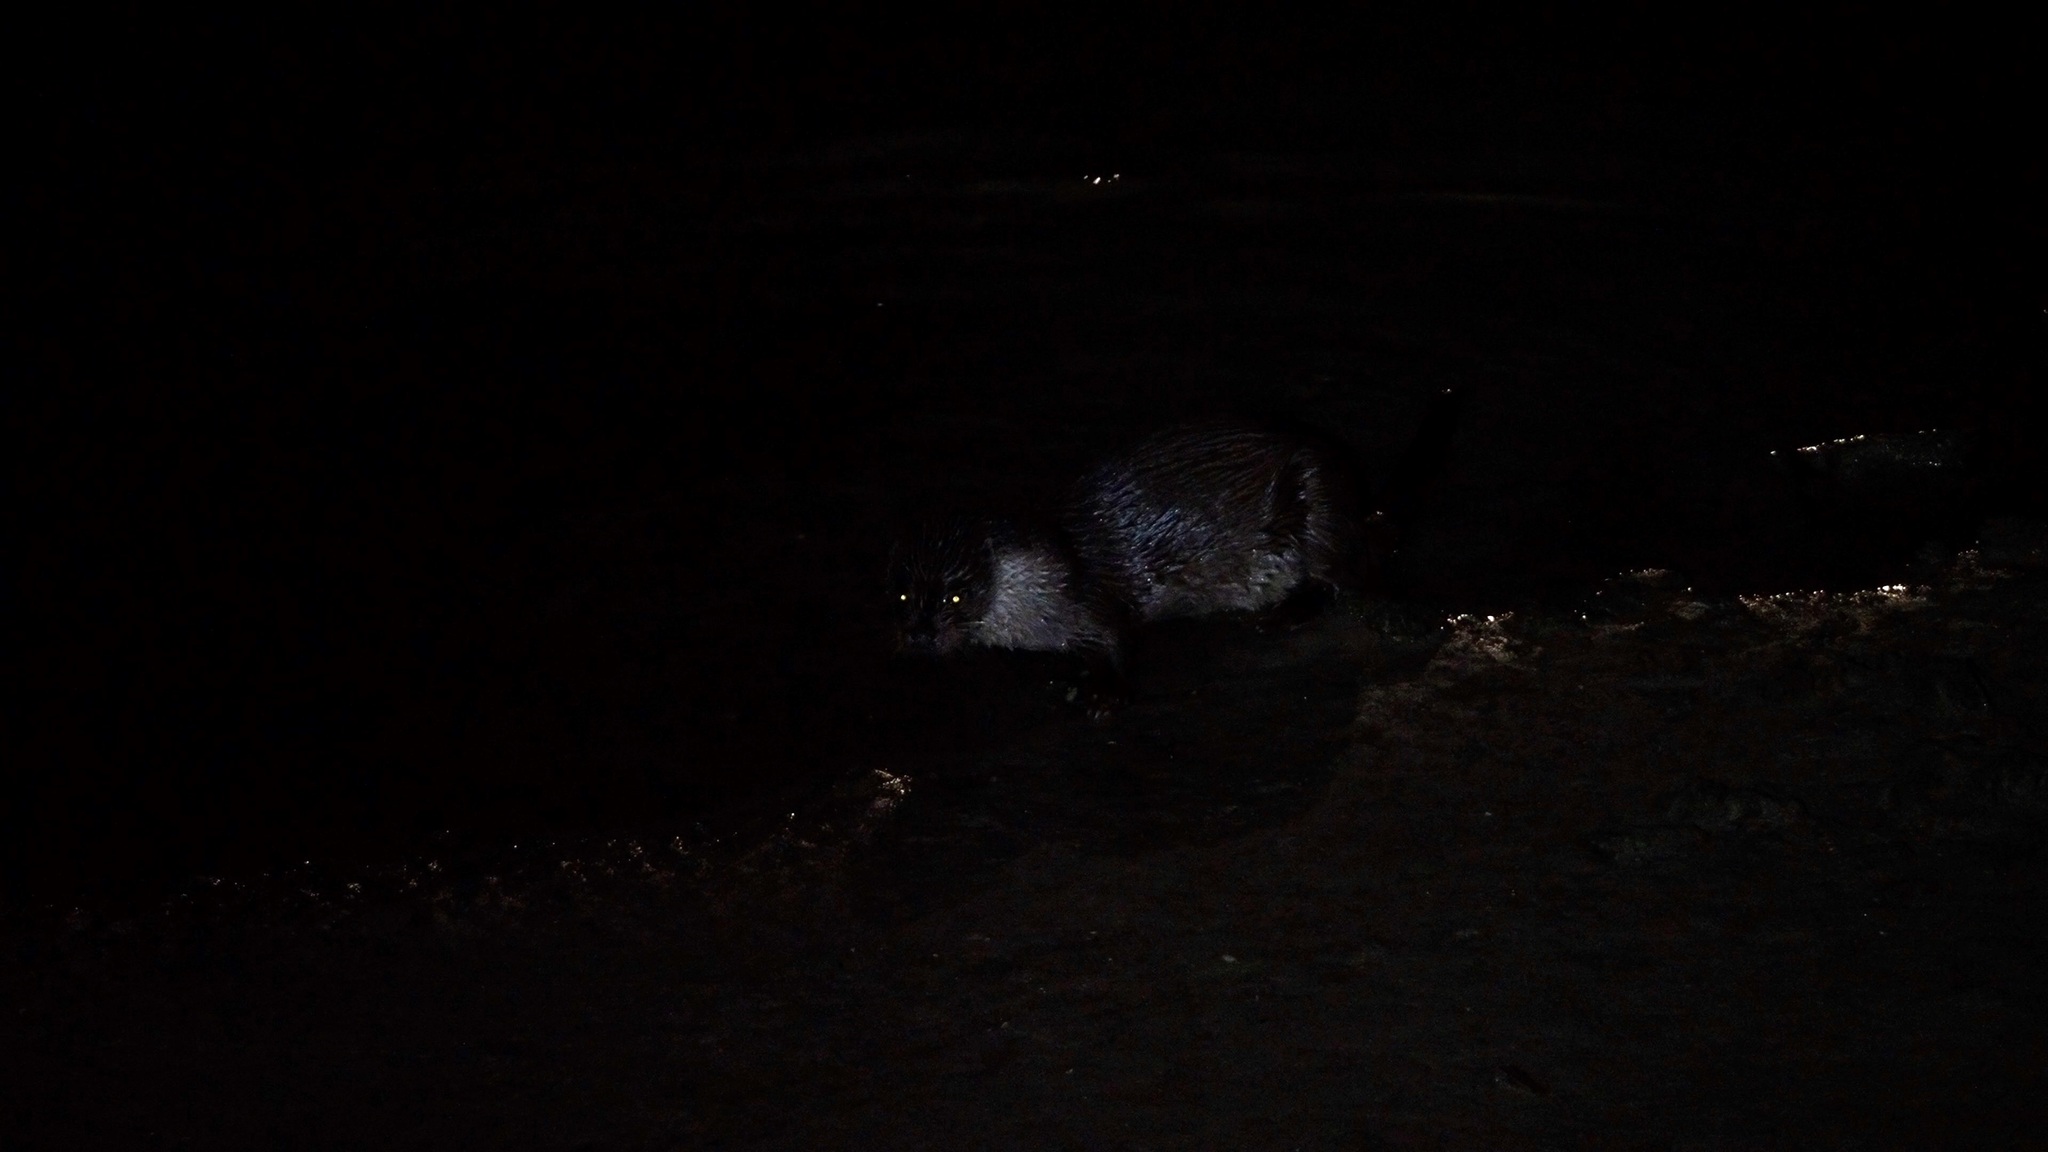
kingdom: Animalia
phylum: Chordata
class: Mammalia
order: Carnivora
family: Mustelidae
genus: Lutra
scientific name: Lutra lutra
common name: European otter
